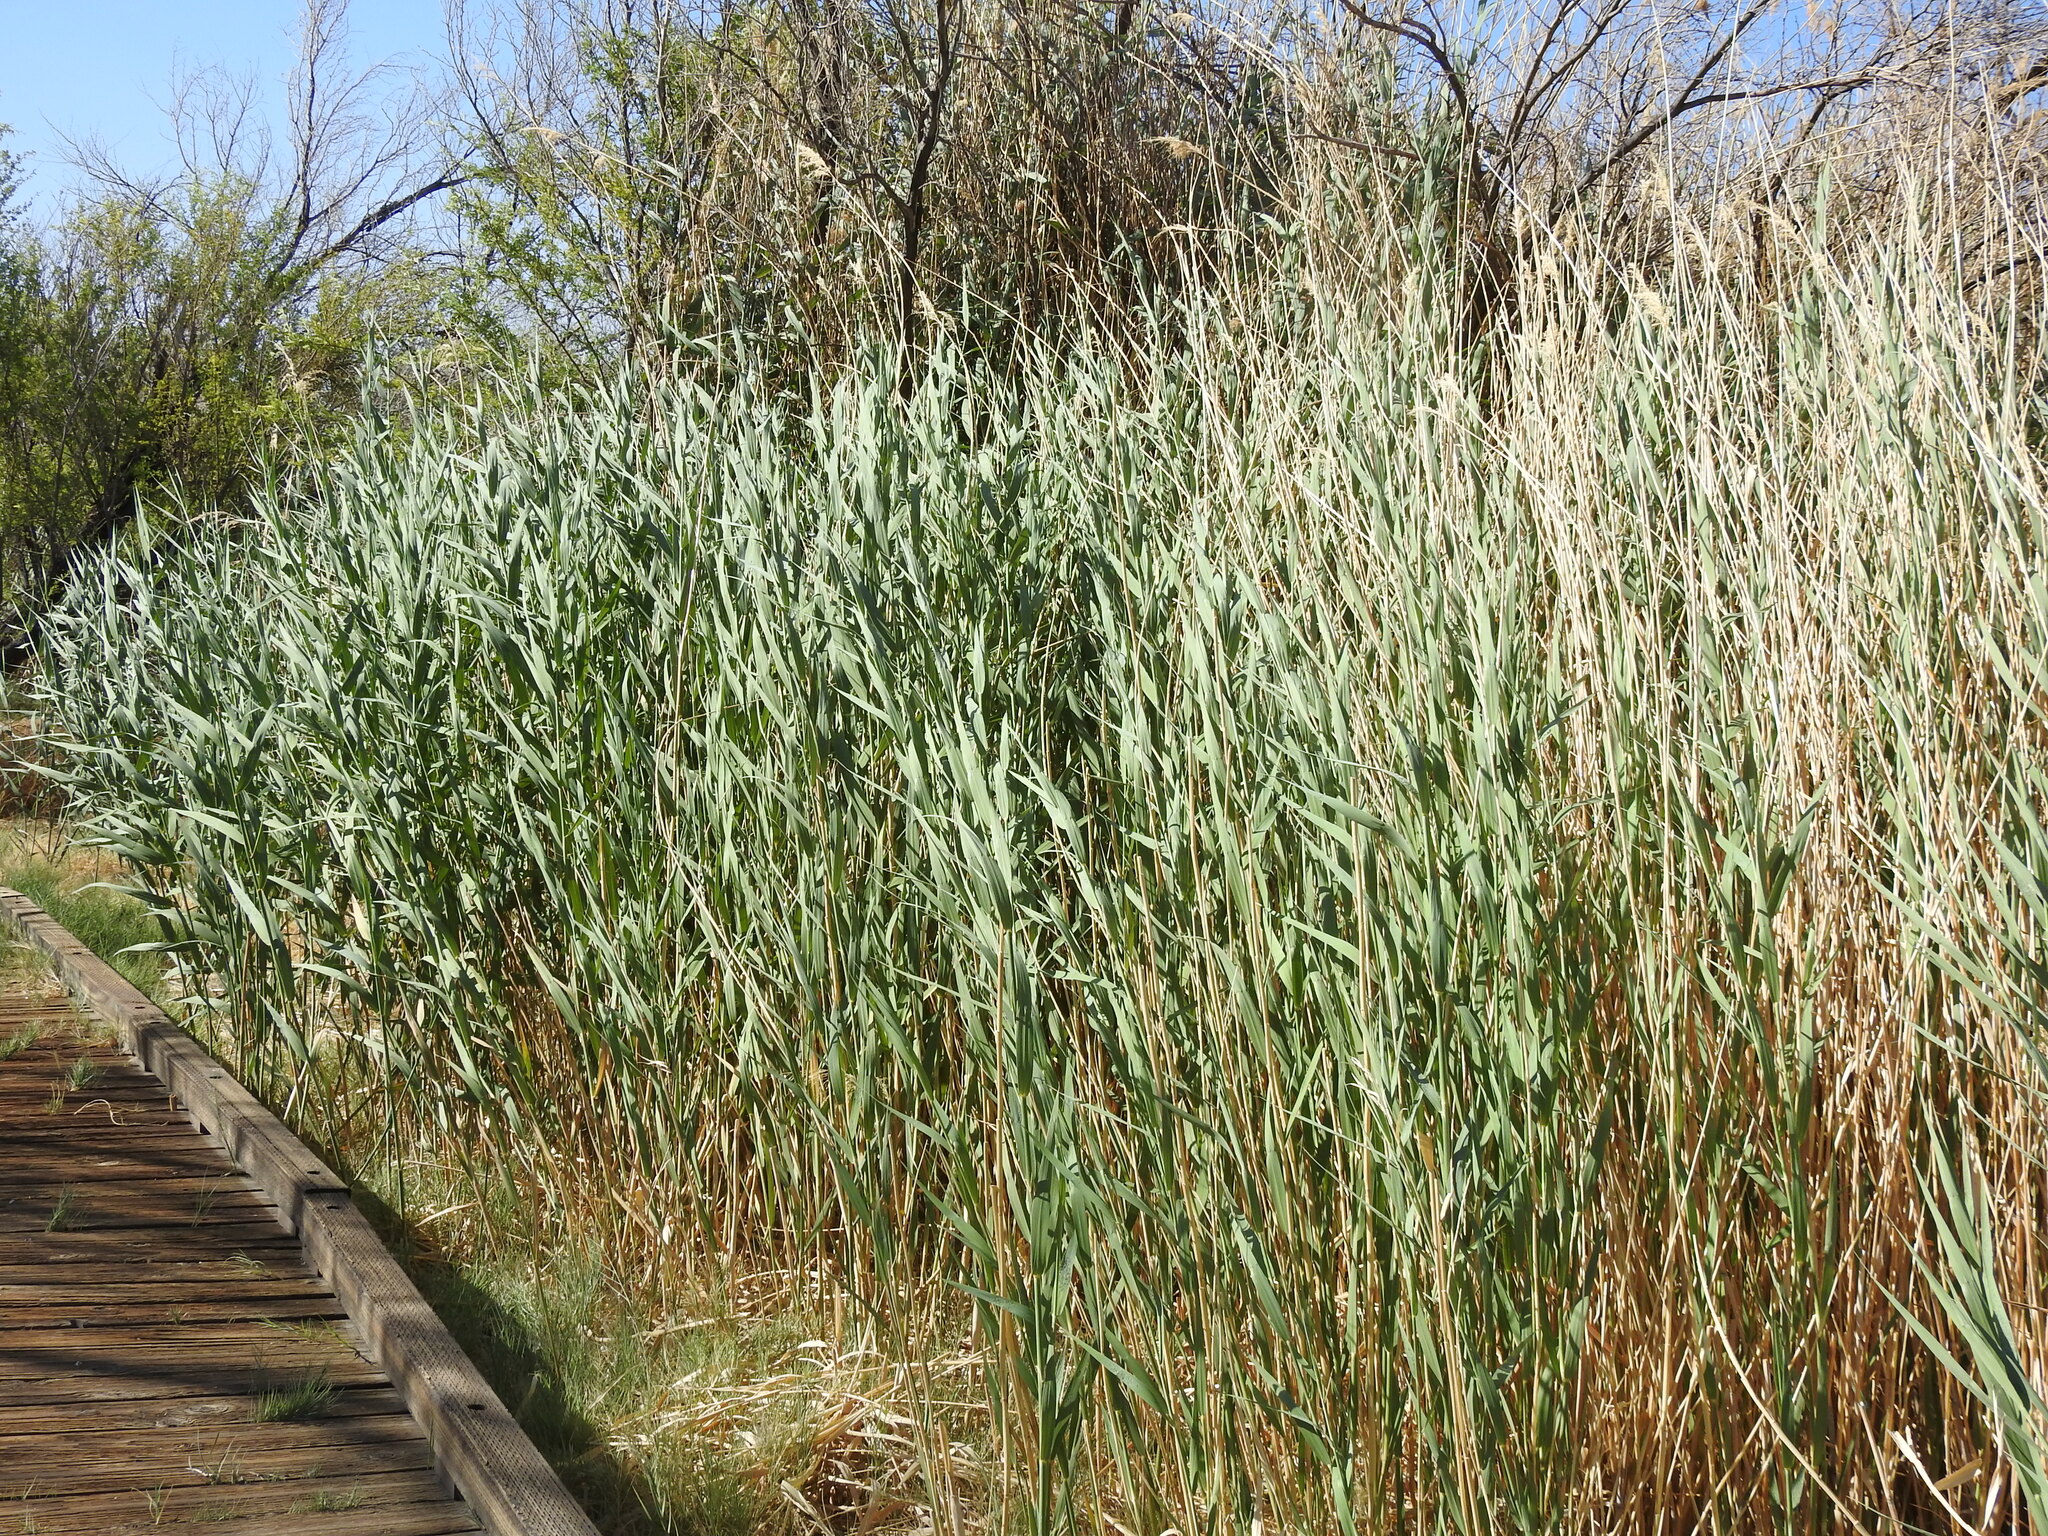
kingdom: Plantae
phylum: Tracheophyta
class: Liliopsida
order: Poales
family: Poaceae
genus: Phragmites
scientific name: Phragmites australis
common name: Common reed
